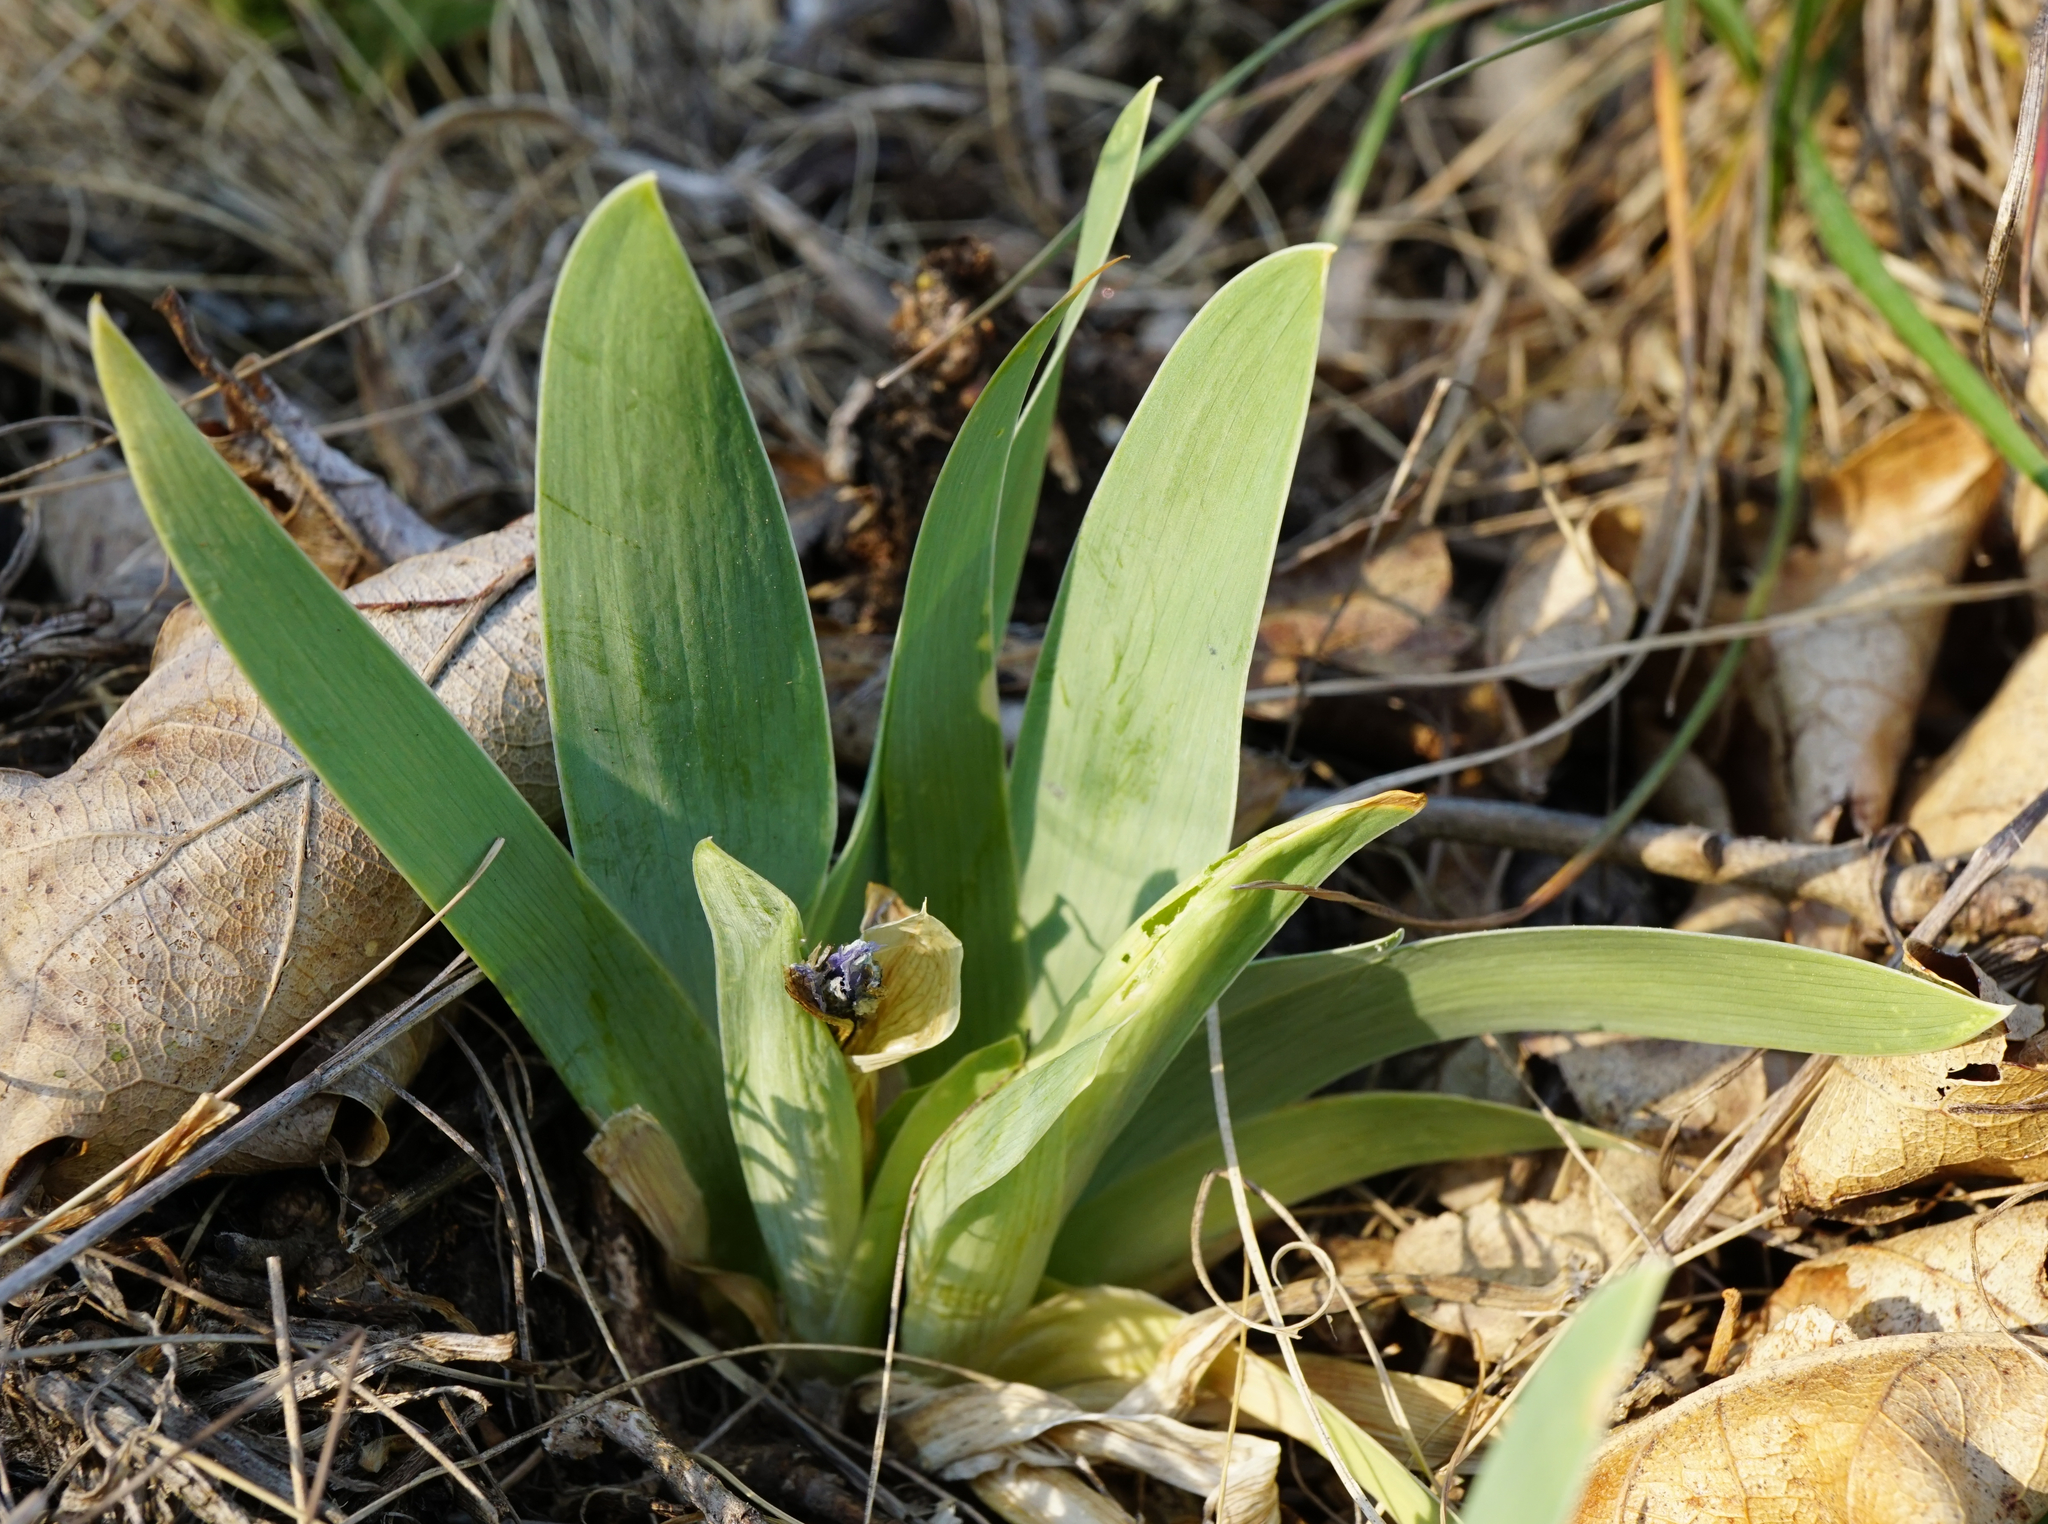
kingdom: Plantae
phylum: Tracheophyta
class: Liliopsida
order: Asparagales
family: Iridaceae
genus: Iris
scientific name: Iris pumila
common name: Dwarf iris
